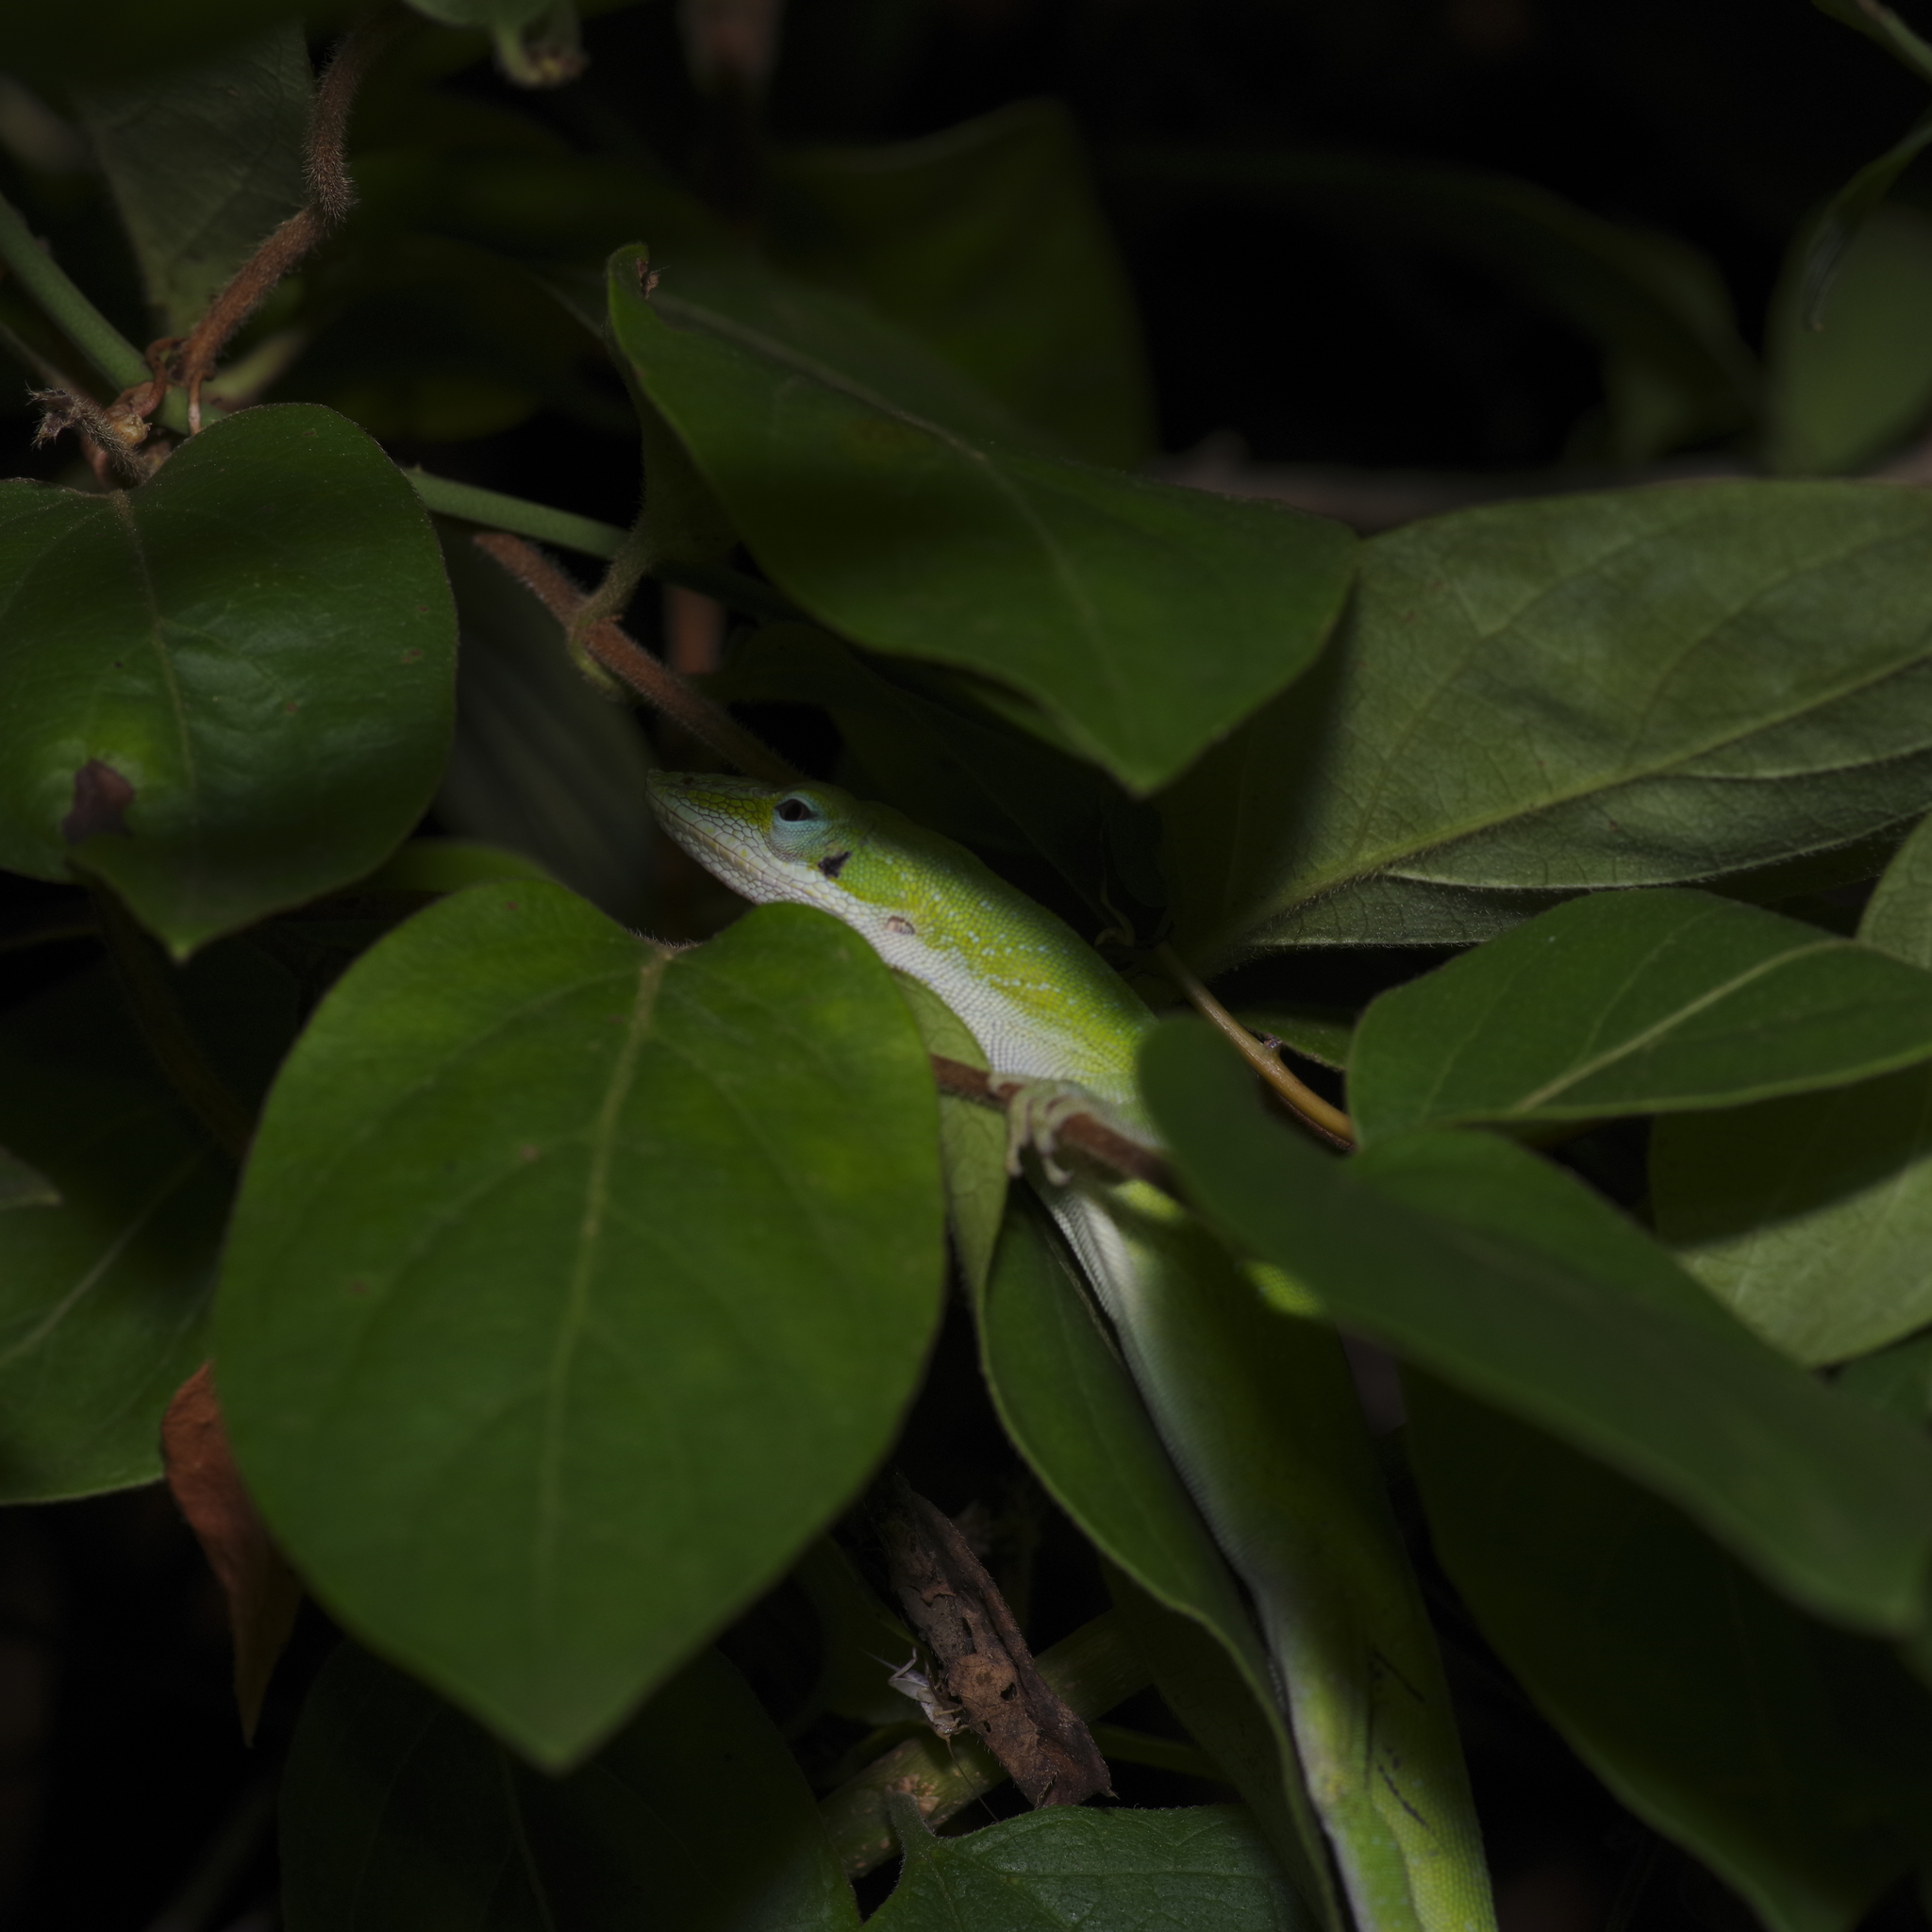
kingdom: Animalia
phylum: Chordata
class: Squamata
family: Dactyloidae
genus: Anolis
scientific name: Anolis carolinensis
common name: Green anole
